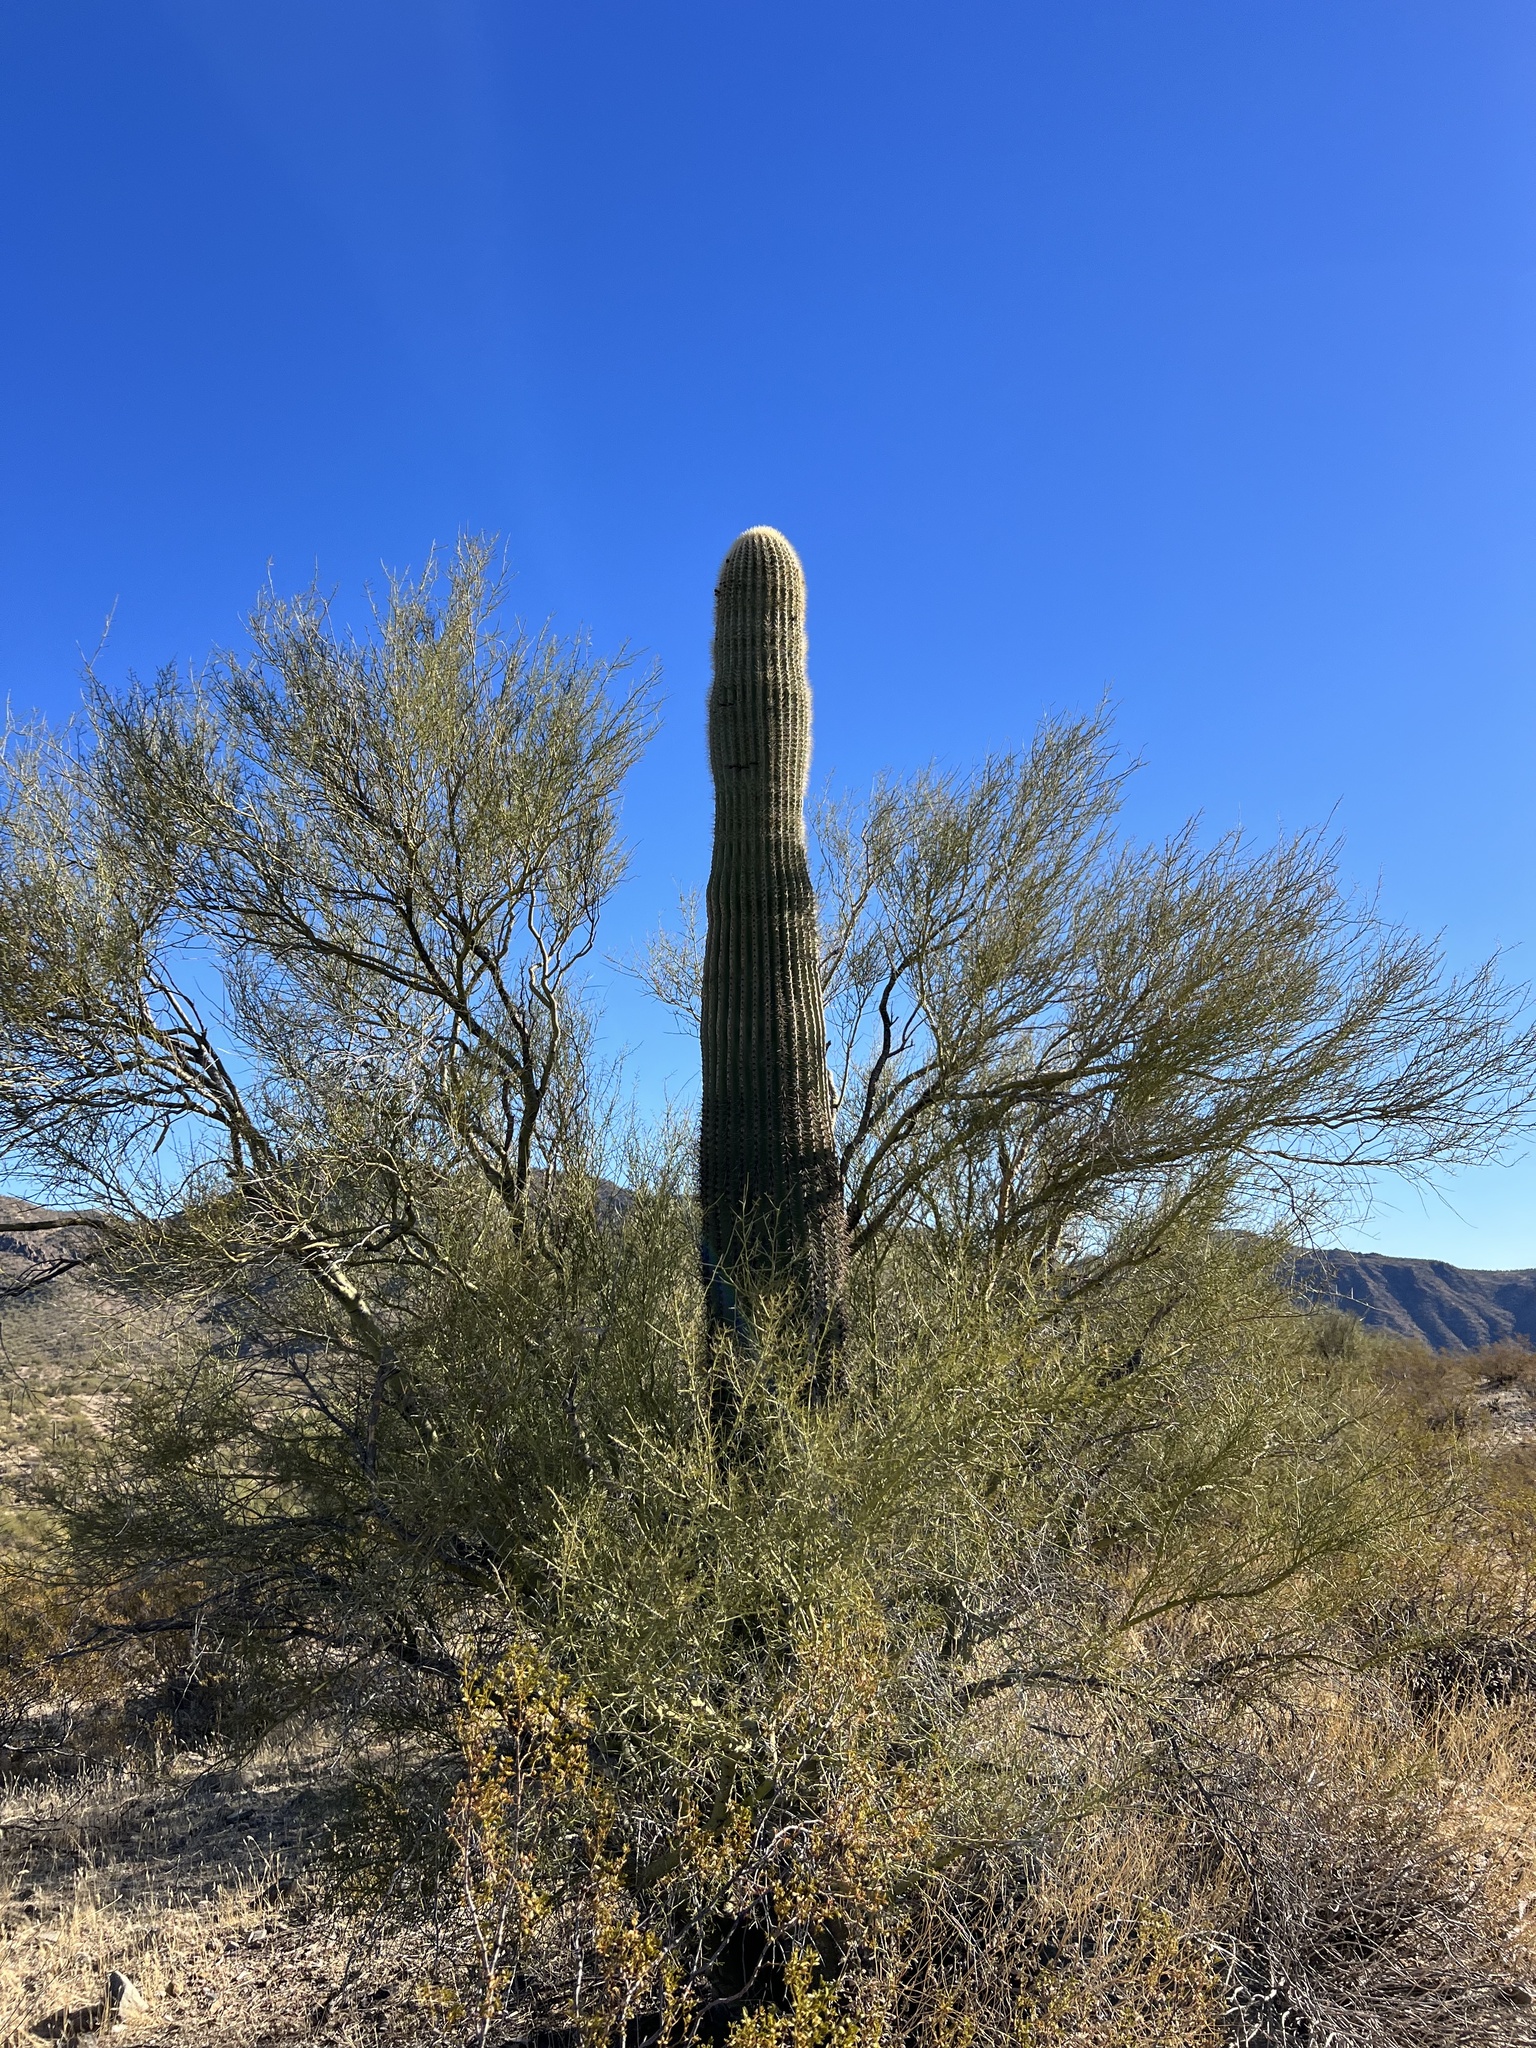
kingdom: Plantae
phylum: Tracheophyta
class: Magnoliopsida
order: Caryophyllales
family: Cactaceae
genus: Carnegiea
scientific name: Carnegiea gigantea
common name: Saguaro
